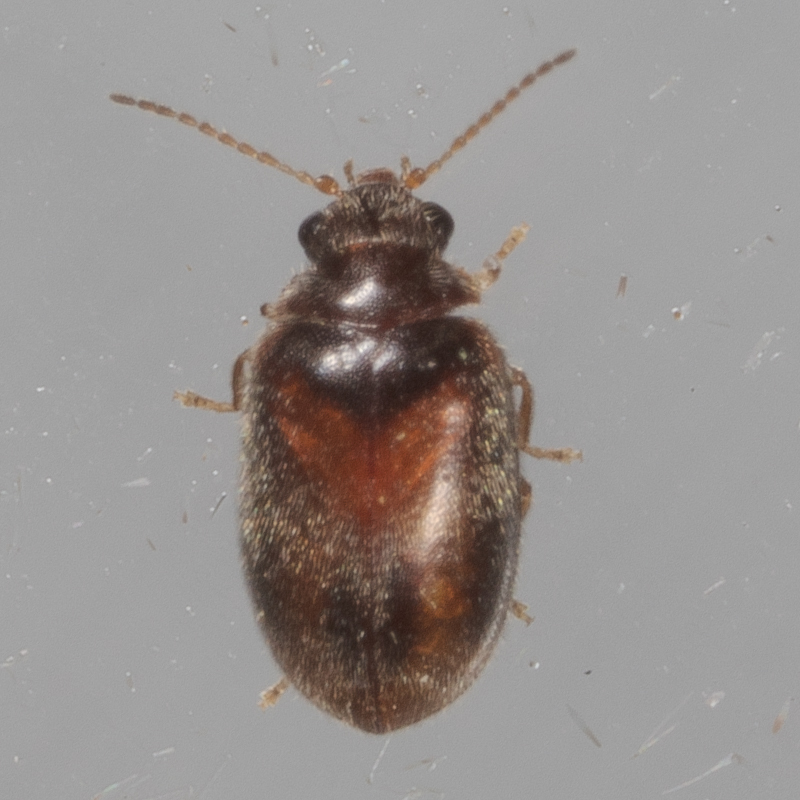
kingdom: Animalia
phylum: Arthropoda
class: Insecta
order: Coleoptera
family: Scirtidae
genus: Contacyphon
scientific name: Contacyphon
